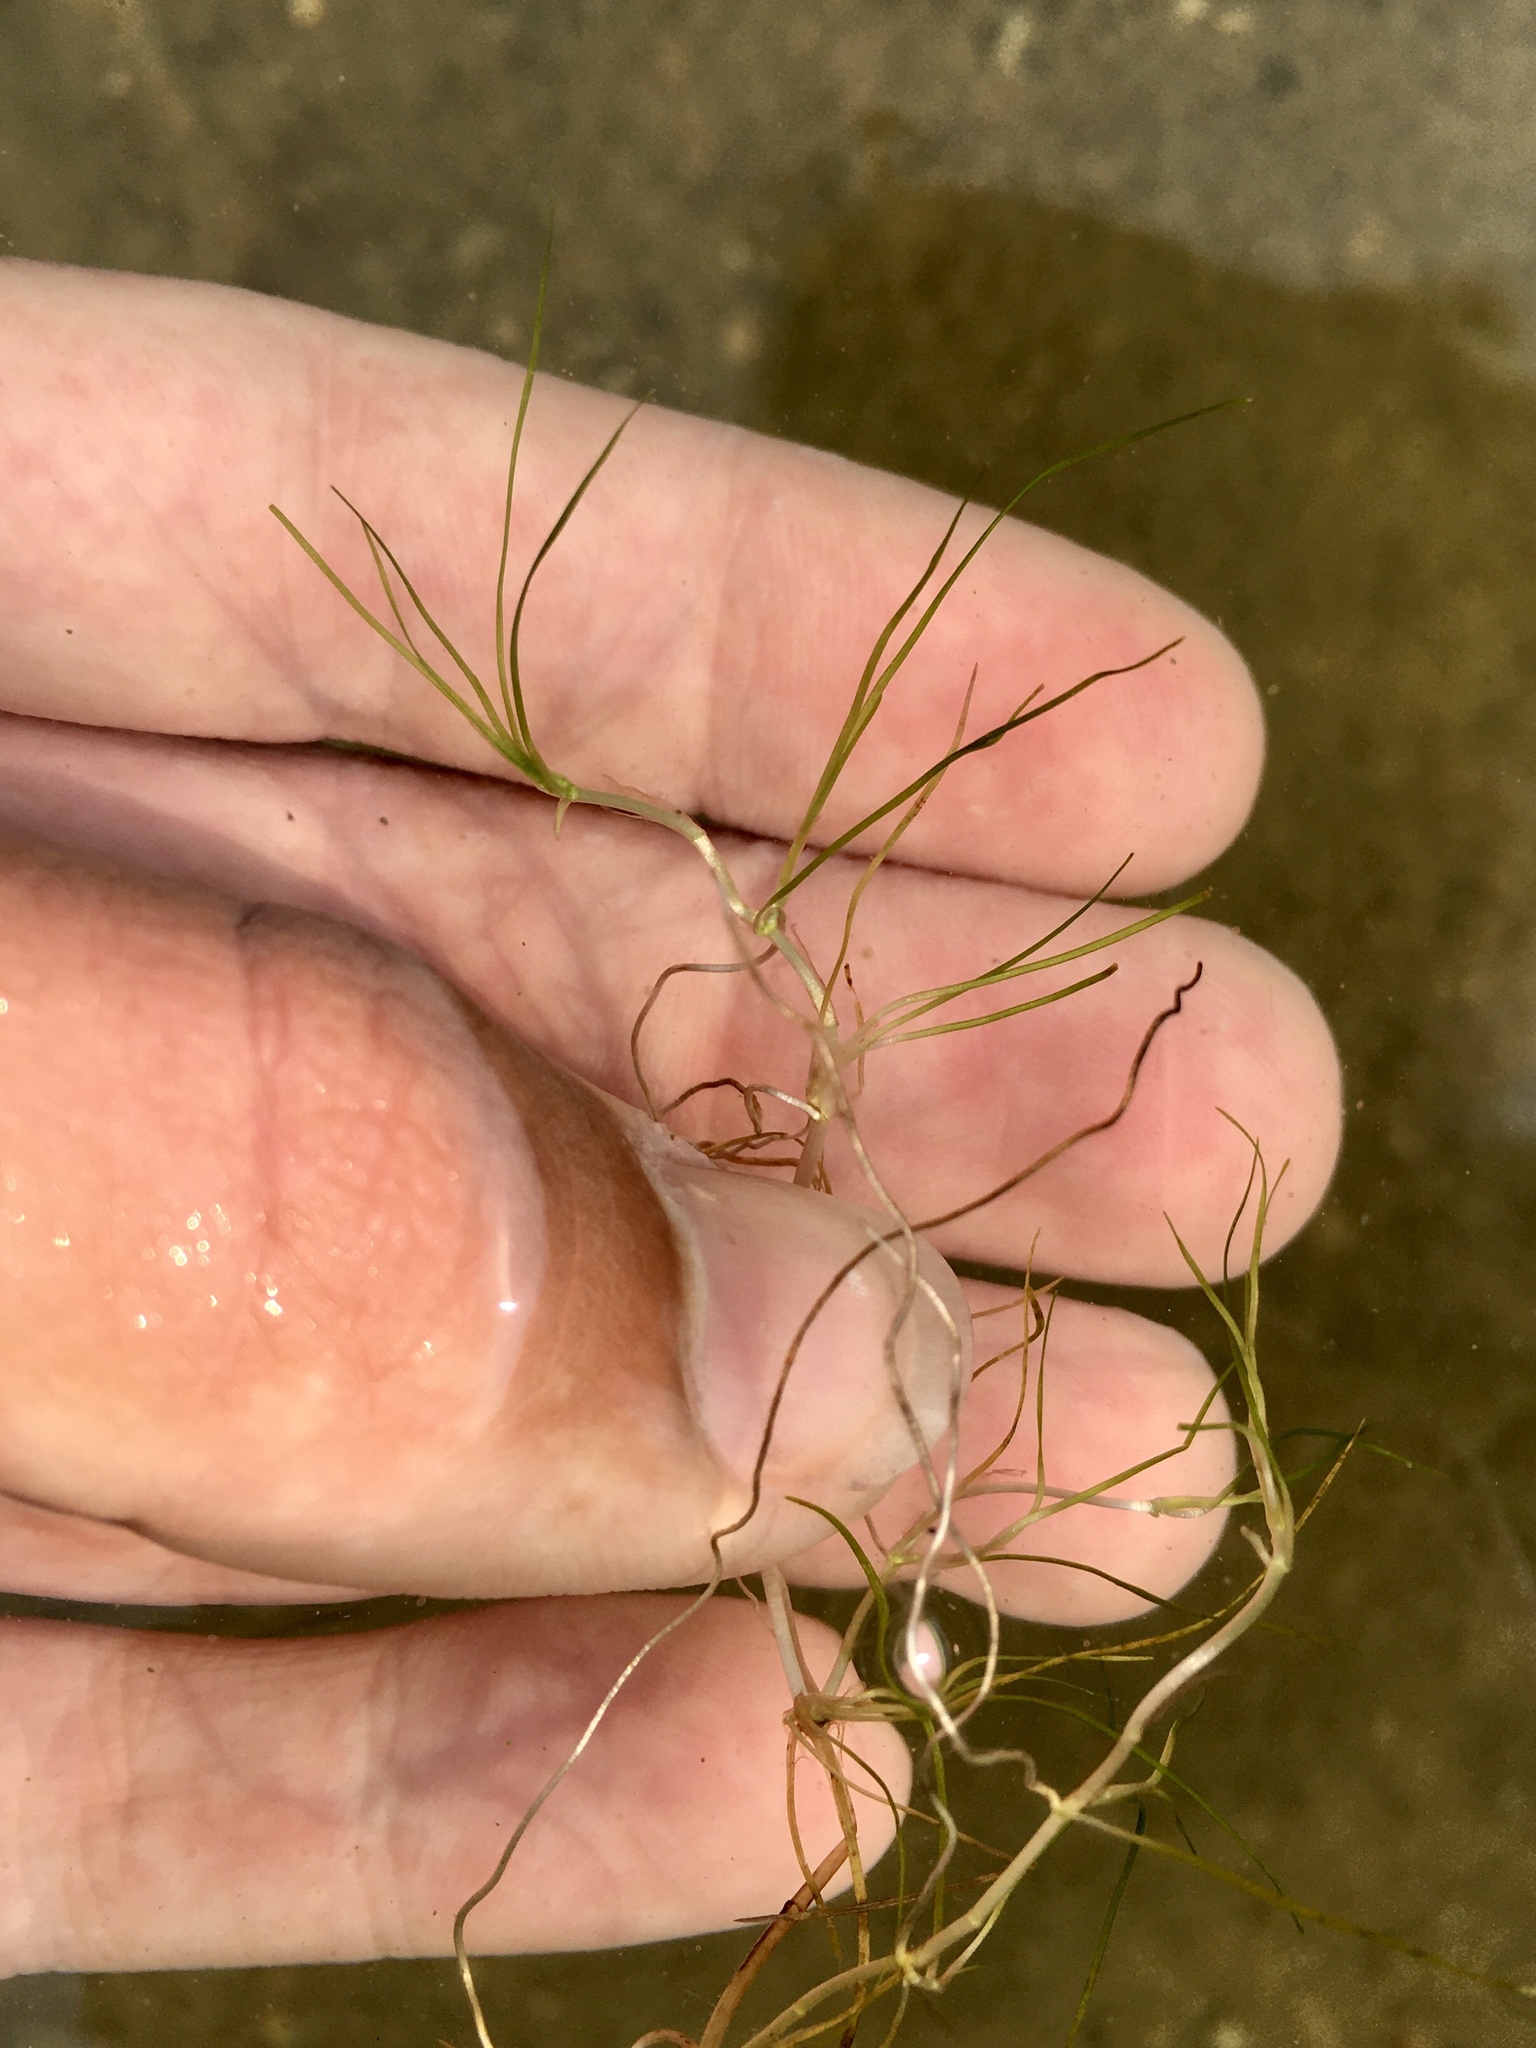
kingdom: Plantae
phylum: Tracheophyta
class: Liliopsida
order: Alismatales
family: Potamogetonaceae
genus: Zannichellia
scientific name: Zannichellia palustris
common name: Horned pondweed
